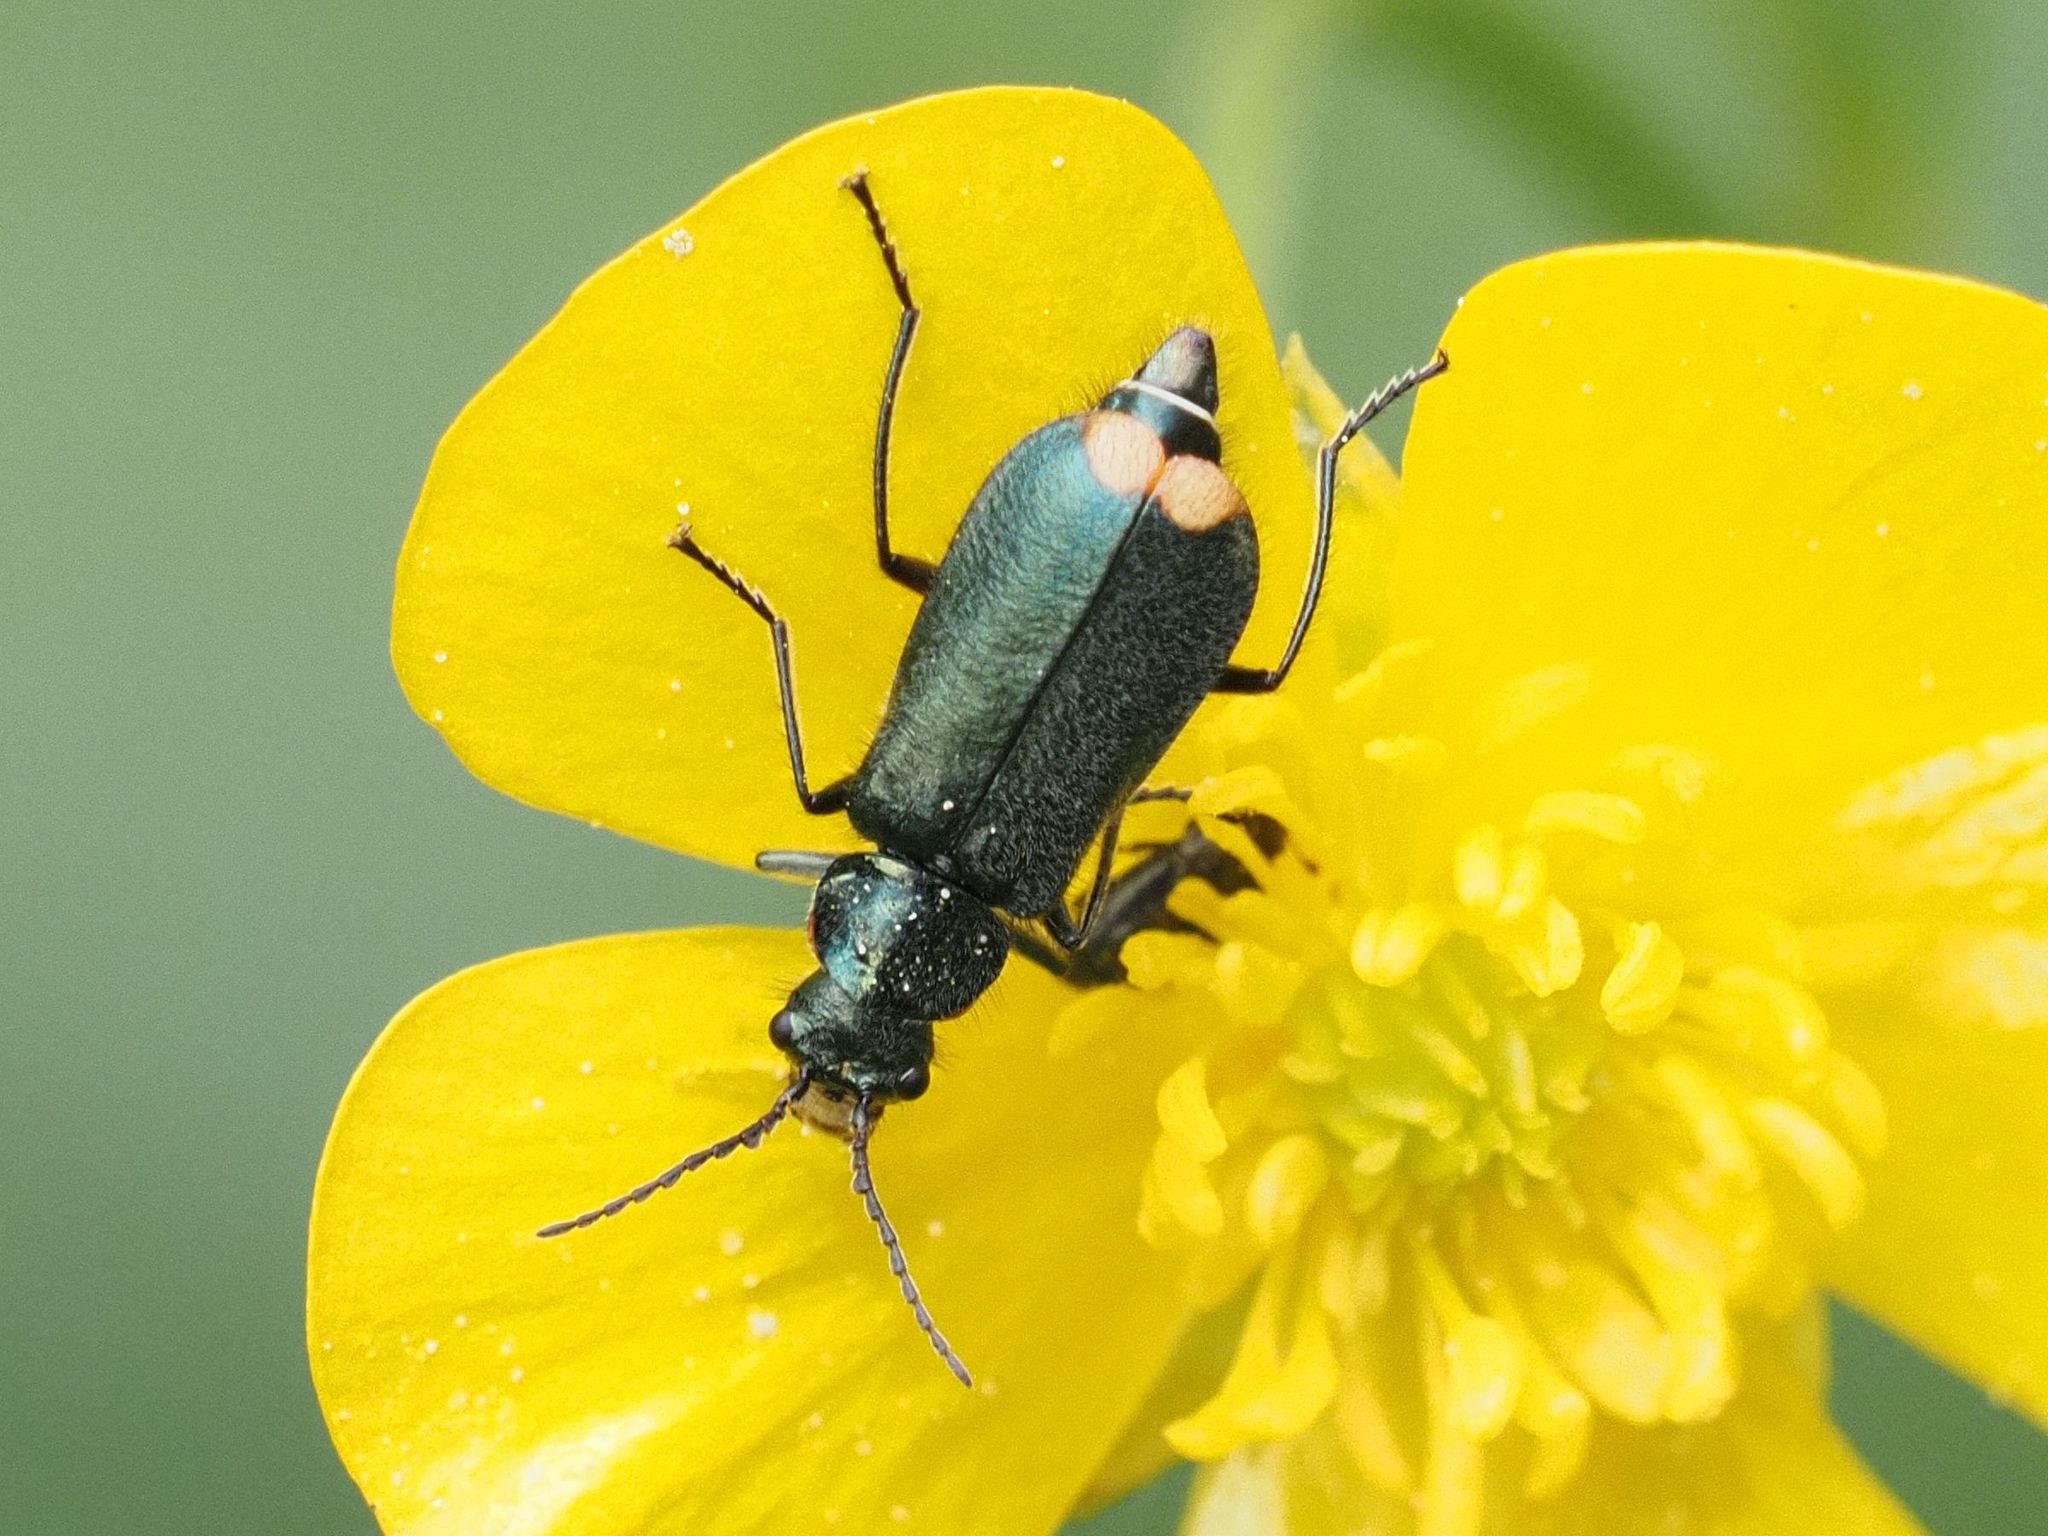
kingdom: Animalia
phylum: Arthropoda
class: Insecta
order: Coleoptera
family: Melyridae
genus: Malachius
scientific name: Malachius bipustulatus
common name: Malachite beetle
